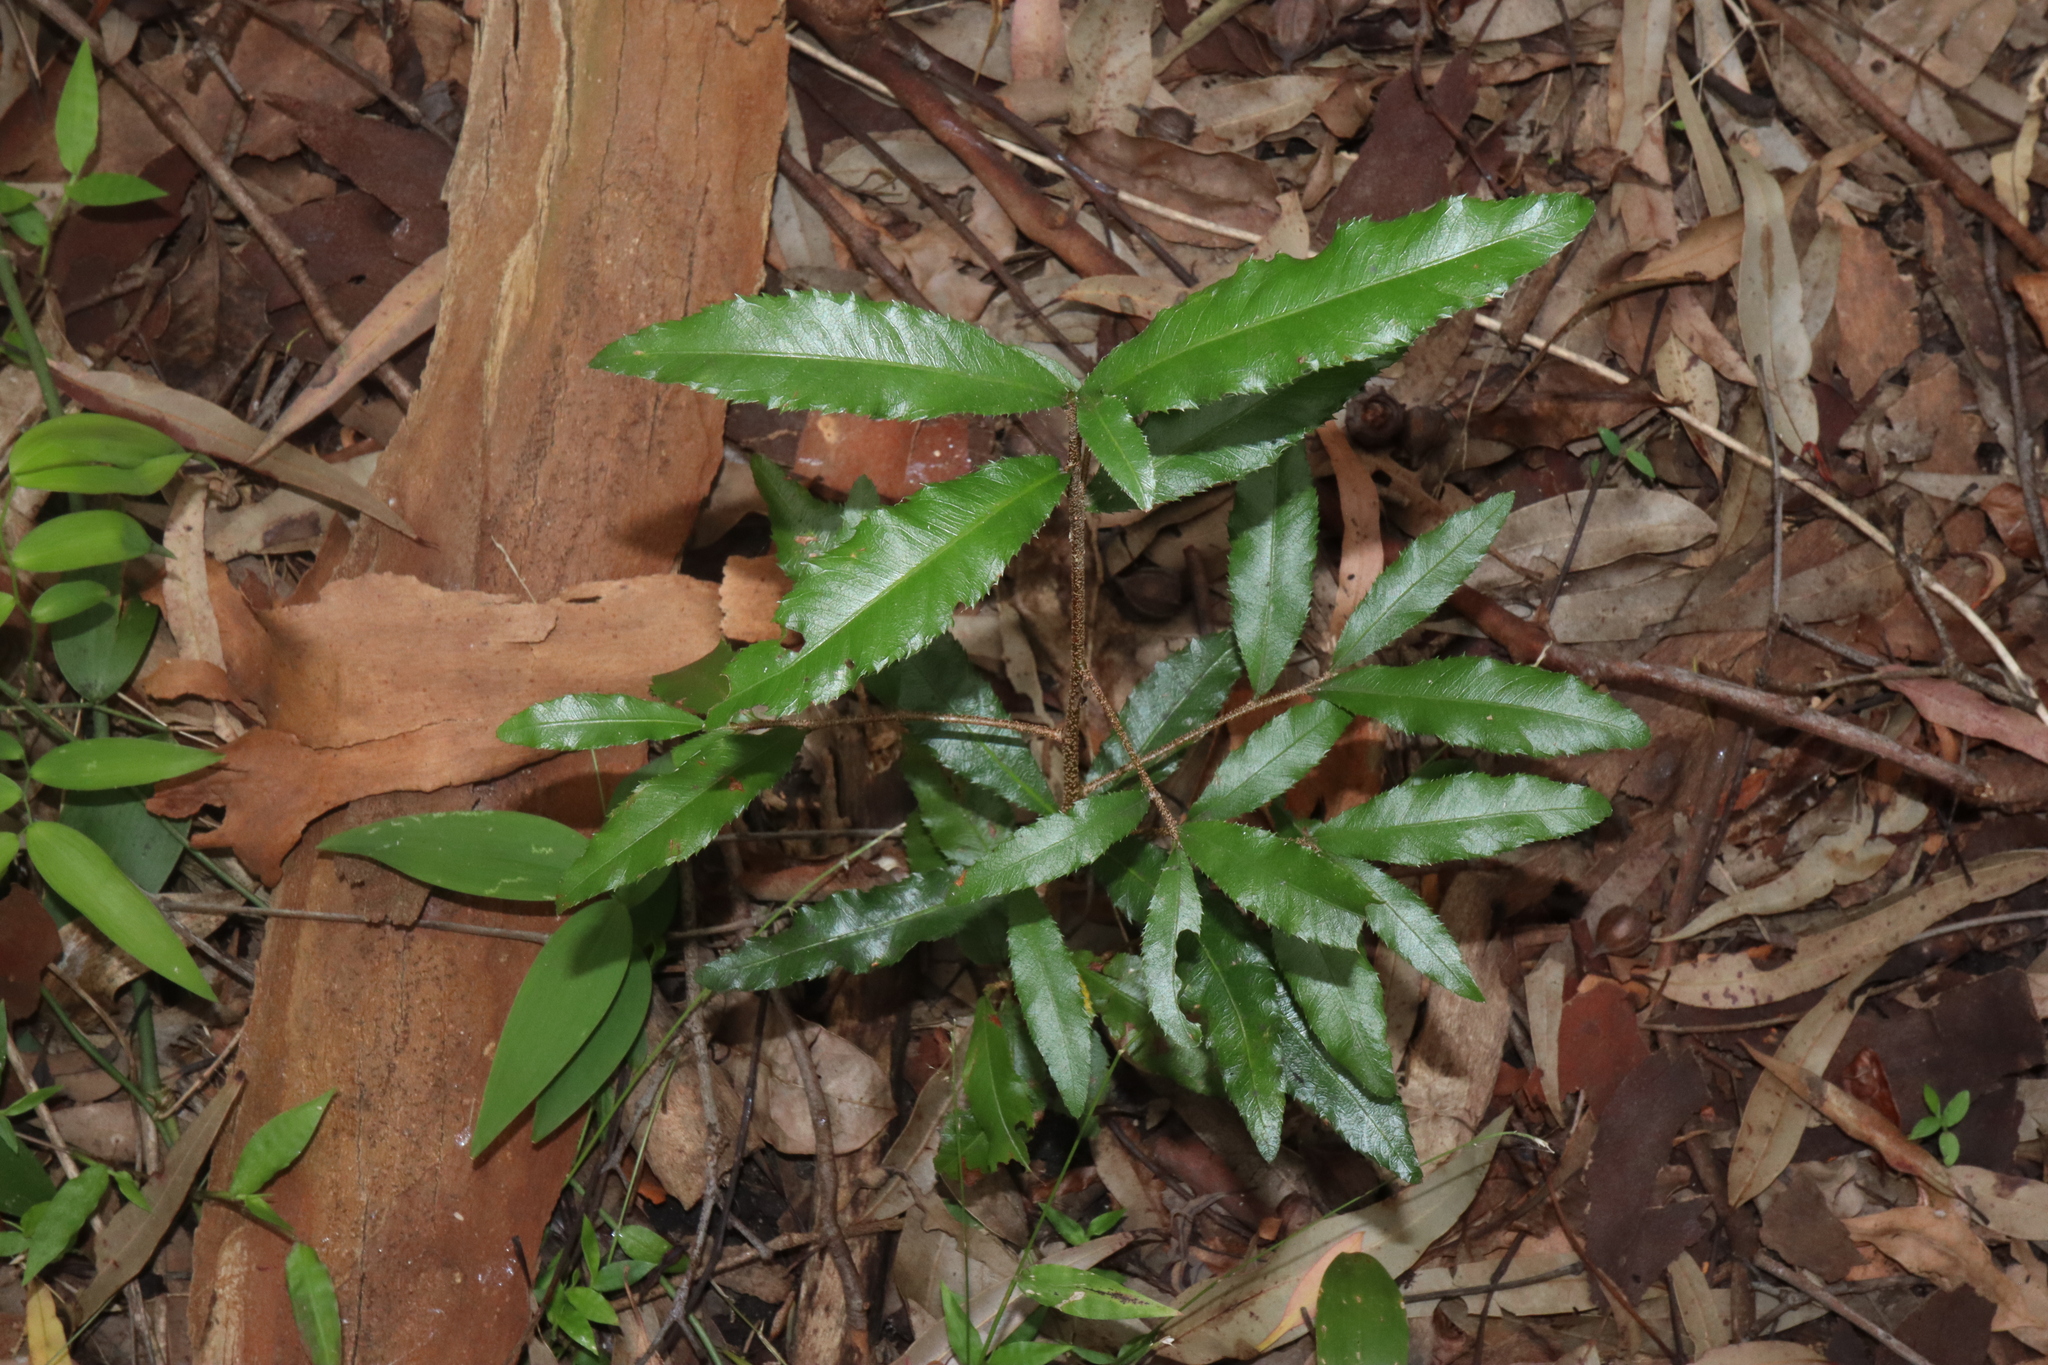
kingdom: Plantae
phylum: Tracheophyta
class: Magnoliopsida
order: Malpighiales
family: Ochnaceae
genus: Ochna
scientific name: Ochna serrulata
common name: Mickey mouse plant
